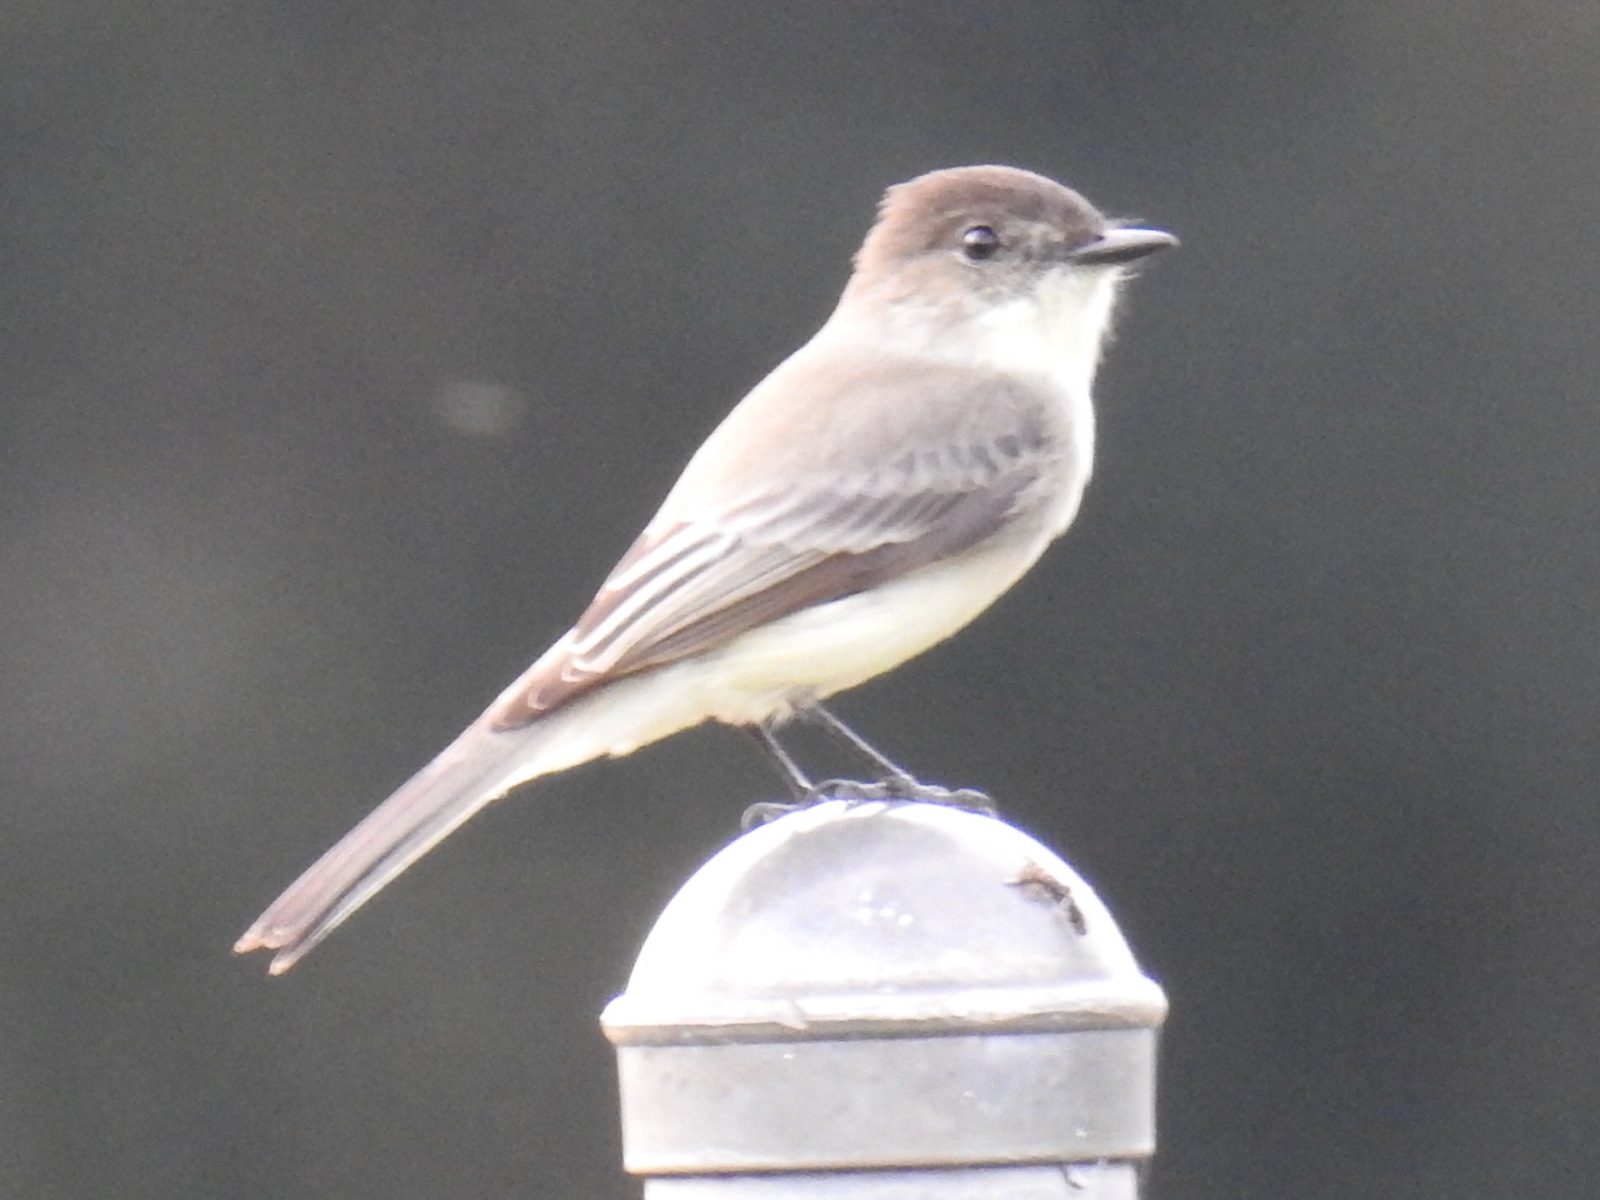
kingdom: Animalia
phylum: Chordata
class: Aves
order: Passeriformes
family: Tyrannidae
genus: Sayornis
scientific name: Sayornis phoebe
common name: Eastern phoebe
